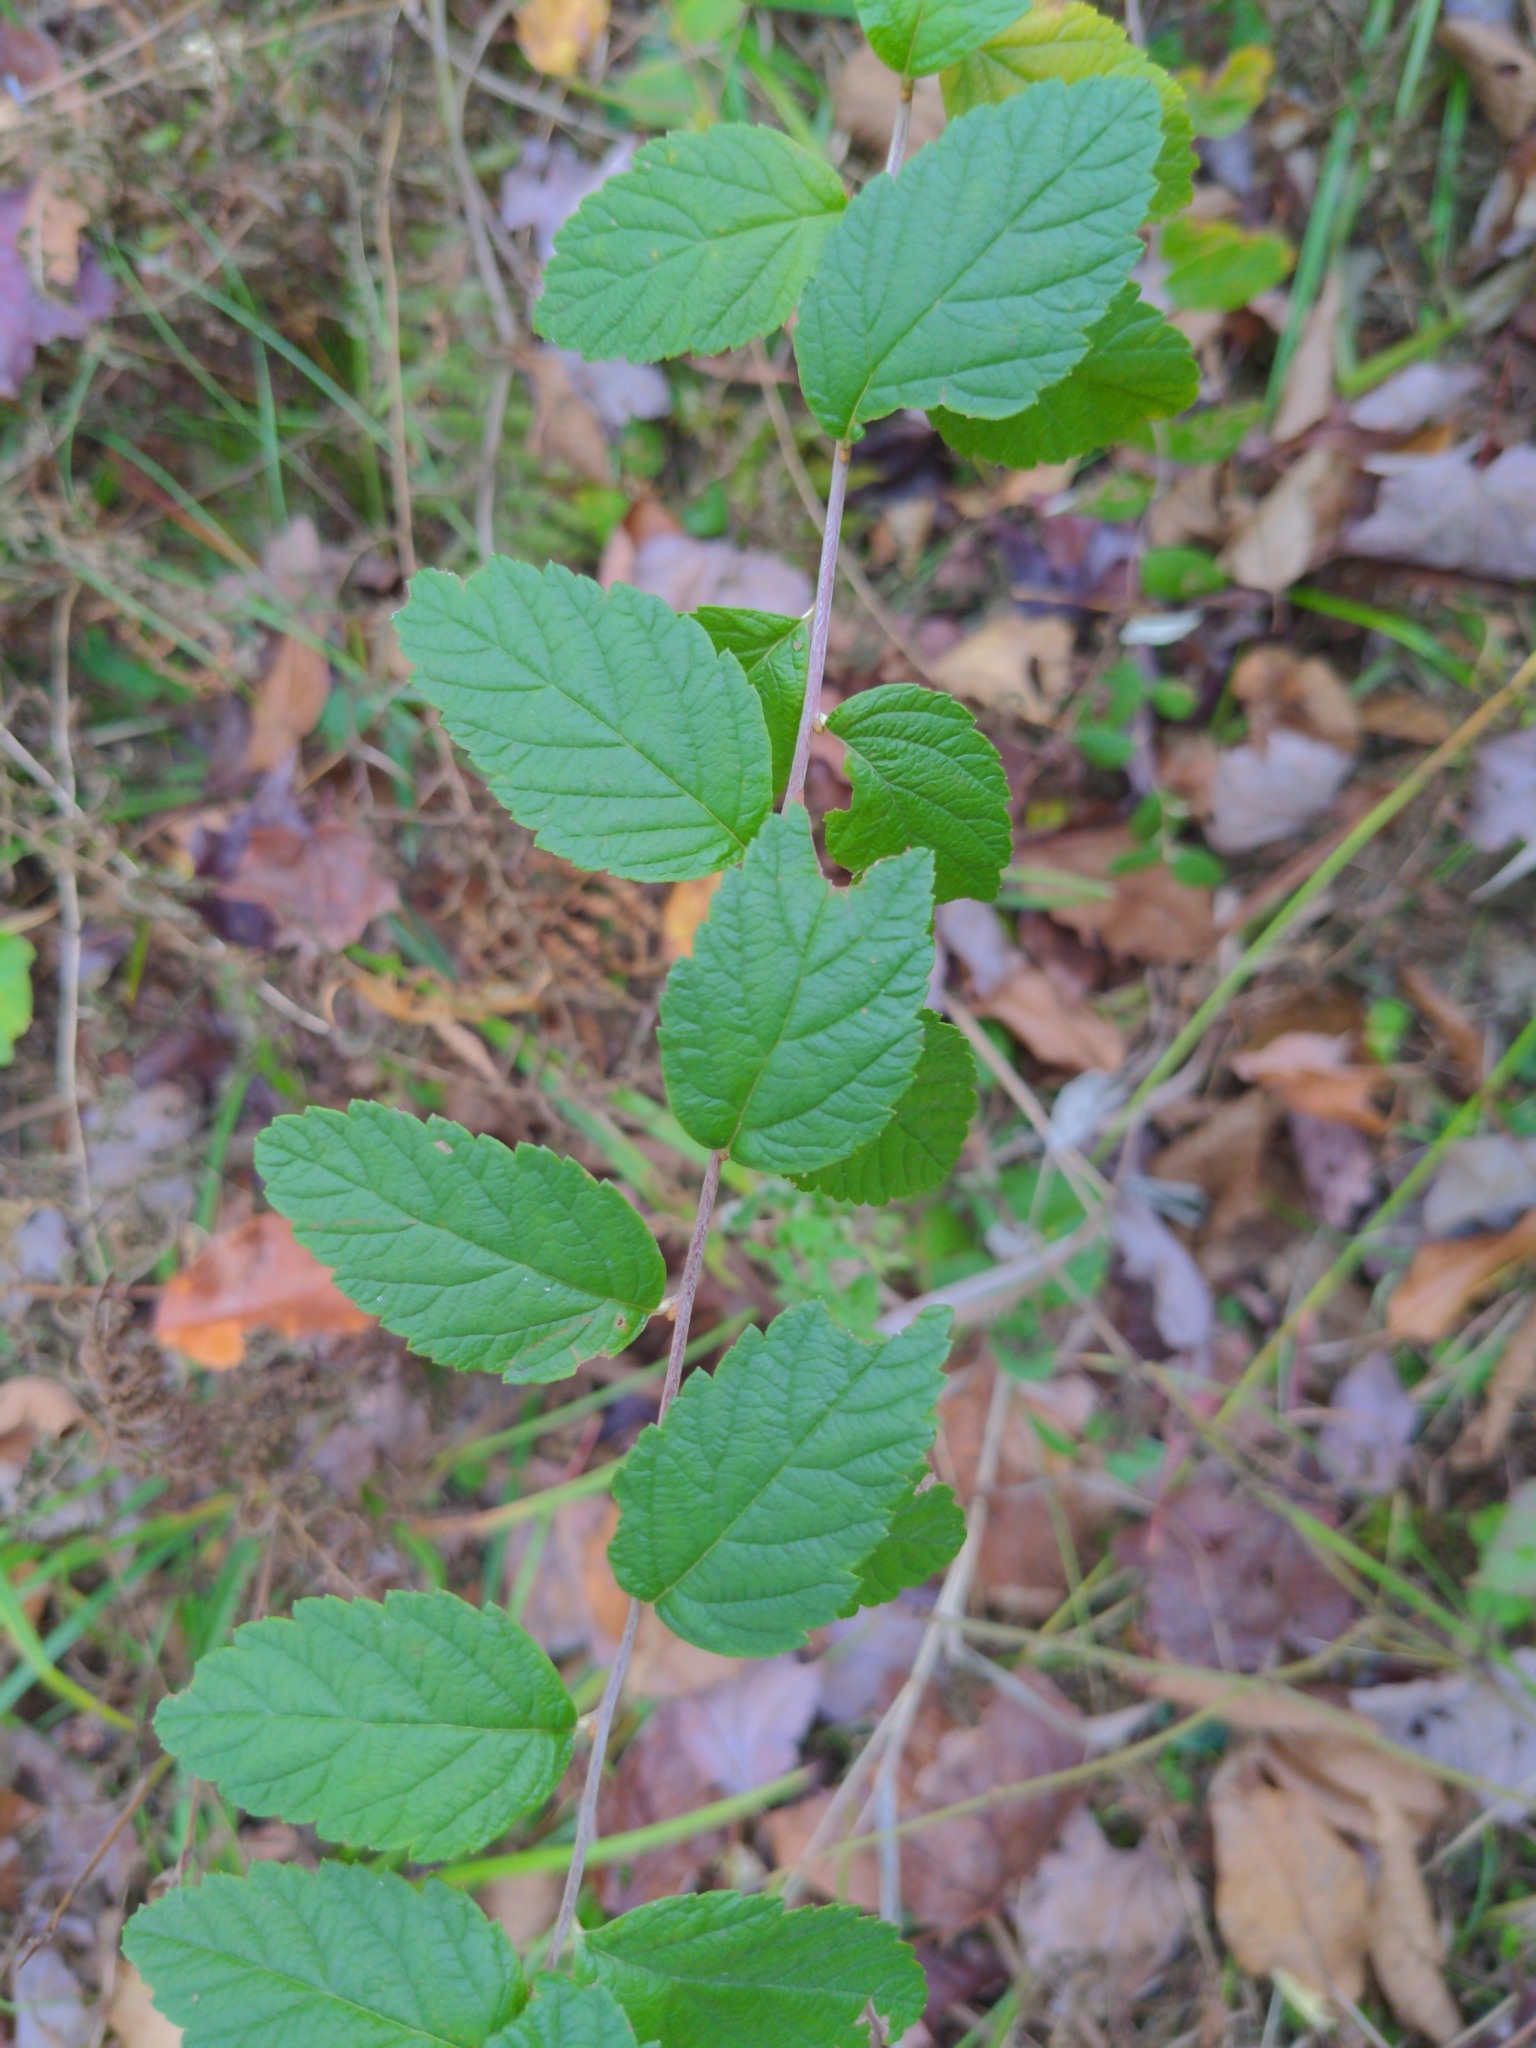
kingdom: Plantae
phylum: Tracheophyta
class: Magnoliopsida
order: Rosales
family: Rosaceae
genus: Spiraea
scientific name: Spiraea tomentosa
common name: Hardhack
